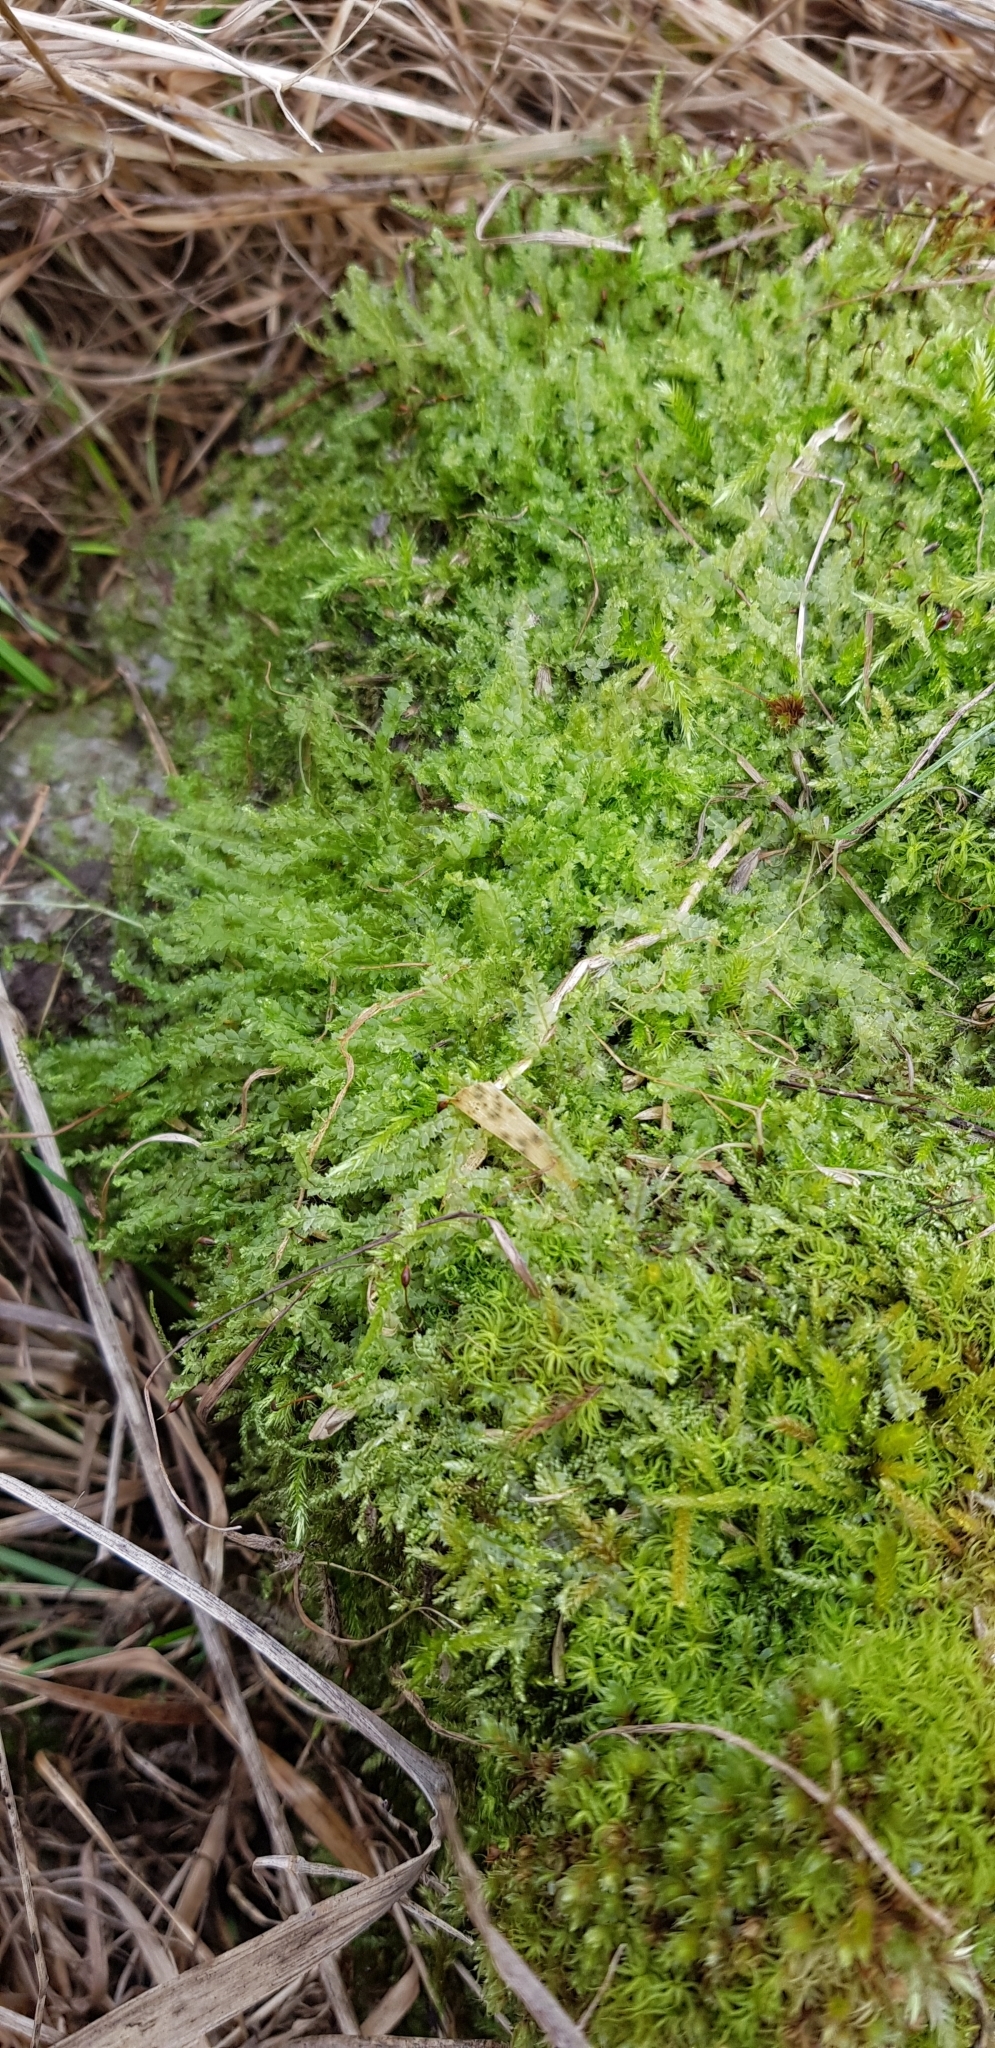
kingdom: Plantae
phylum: Marchantiophyta
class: Jungermanniopsida
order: Jungermanniales
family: Lophocoleaceae
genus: Lophocolea
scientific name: Lophocolea bidentata
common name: Bifid crestwort
